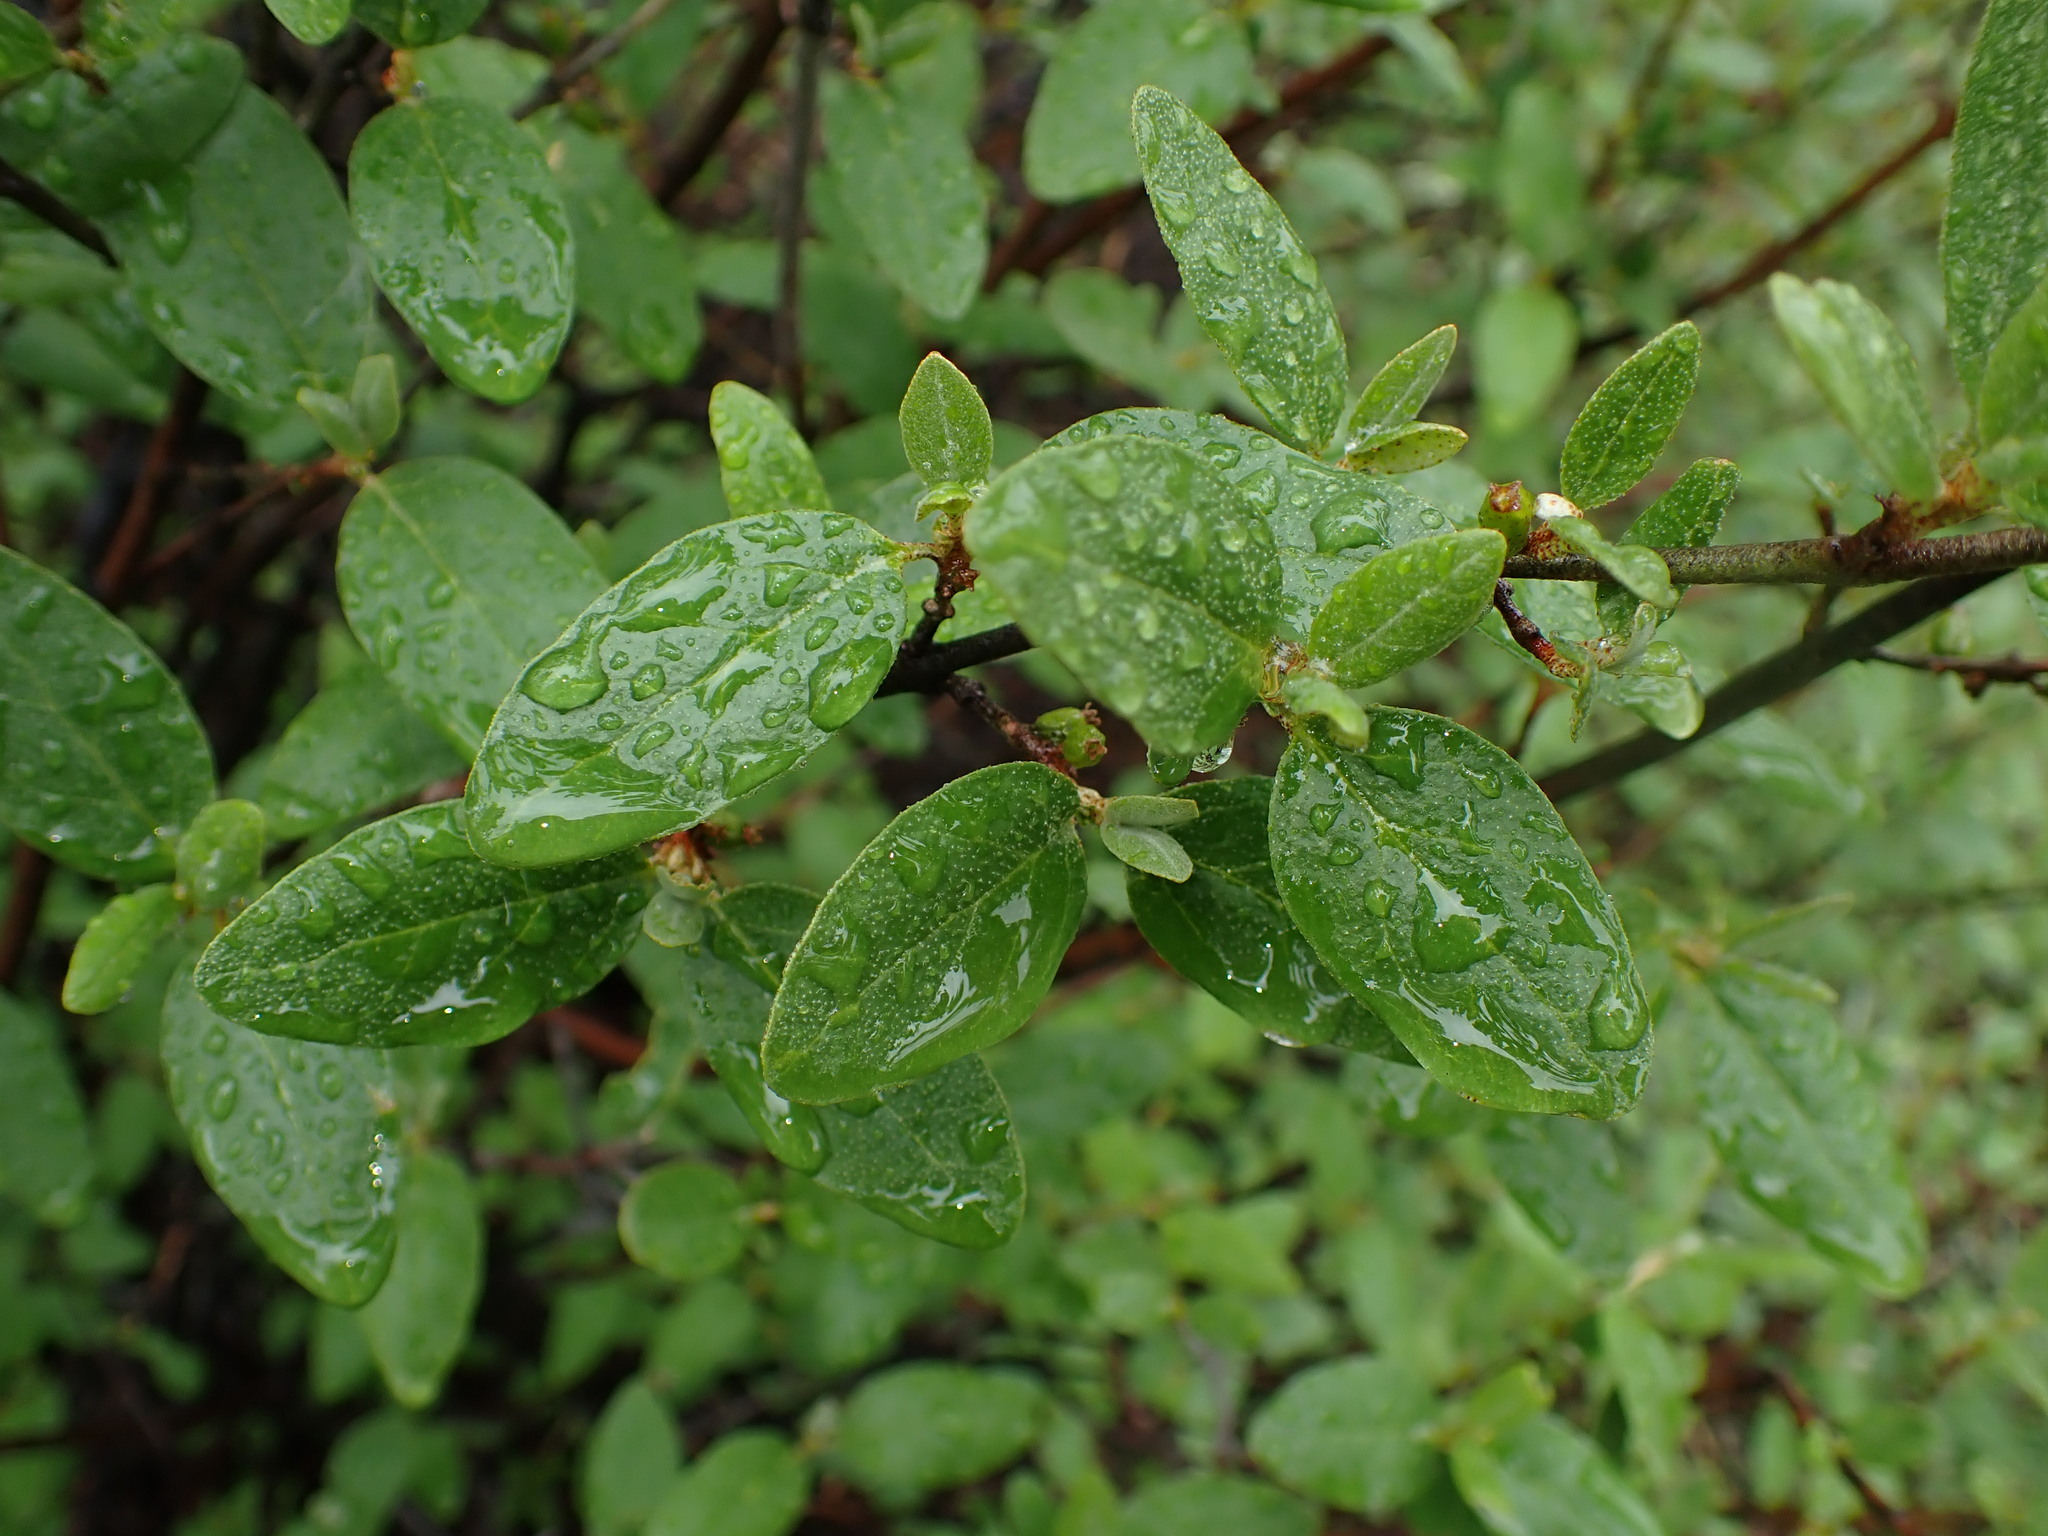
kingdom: Plantae
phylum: Tracheophyta
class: Magnoliopsida
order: Rosales
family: Elaeagnaceae
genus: Shepherdia
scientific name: Shepherdia canadensis
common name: Soapberry
